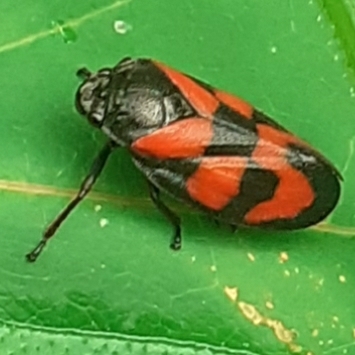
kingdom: Animalia
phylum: Arthropoda
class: Insecta
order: Hemiptera
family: Cercopidae
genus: Cercopis
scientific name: Cercopis vulnerata
